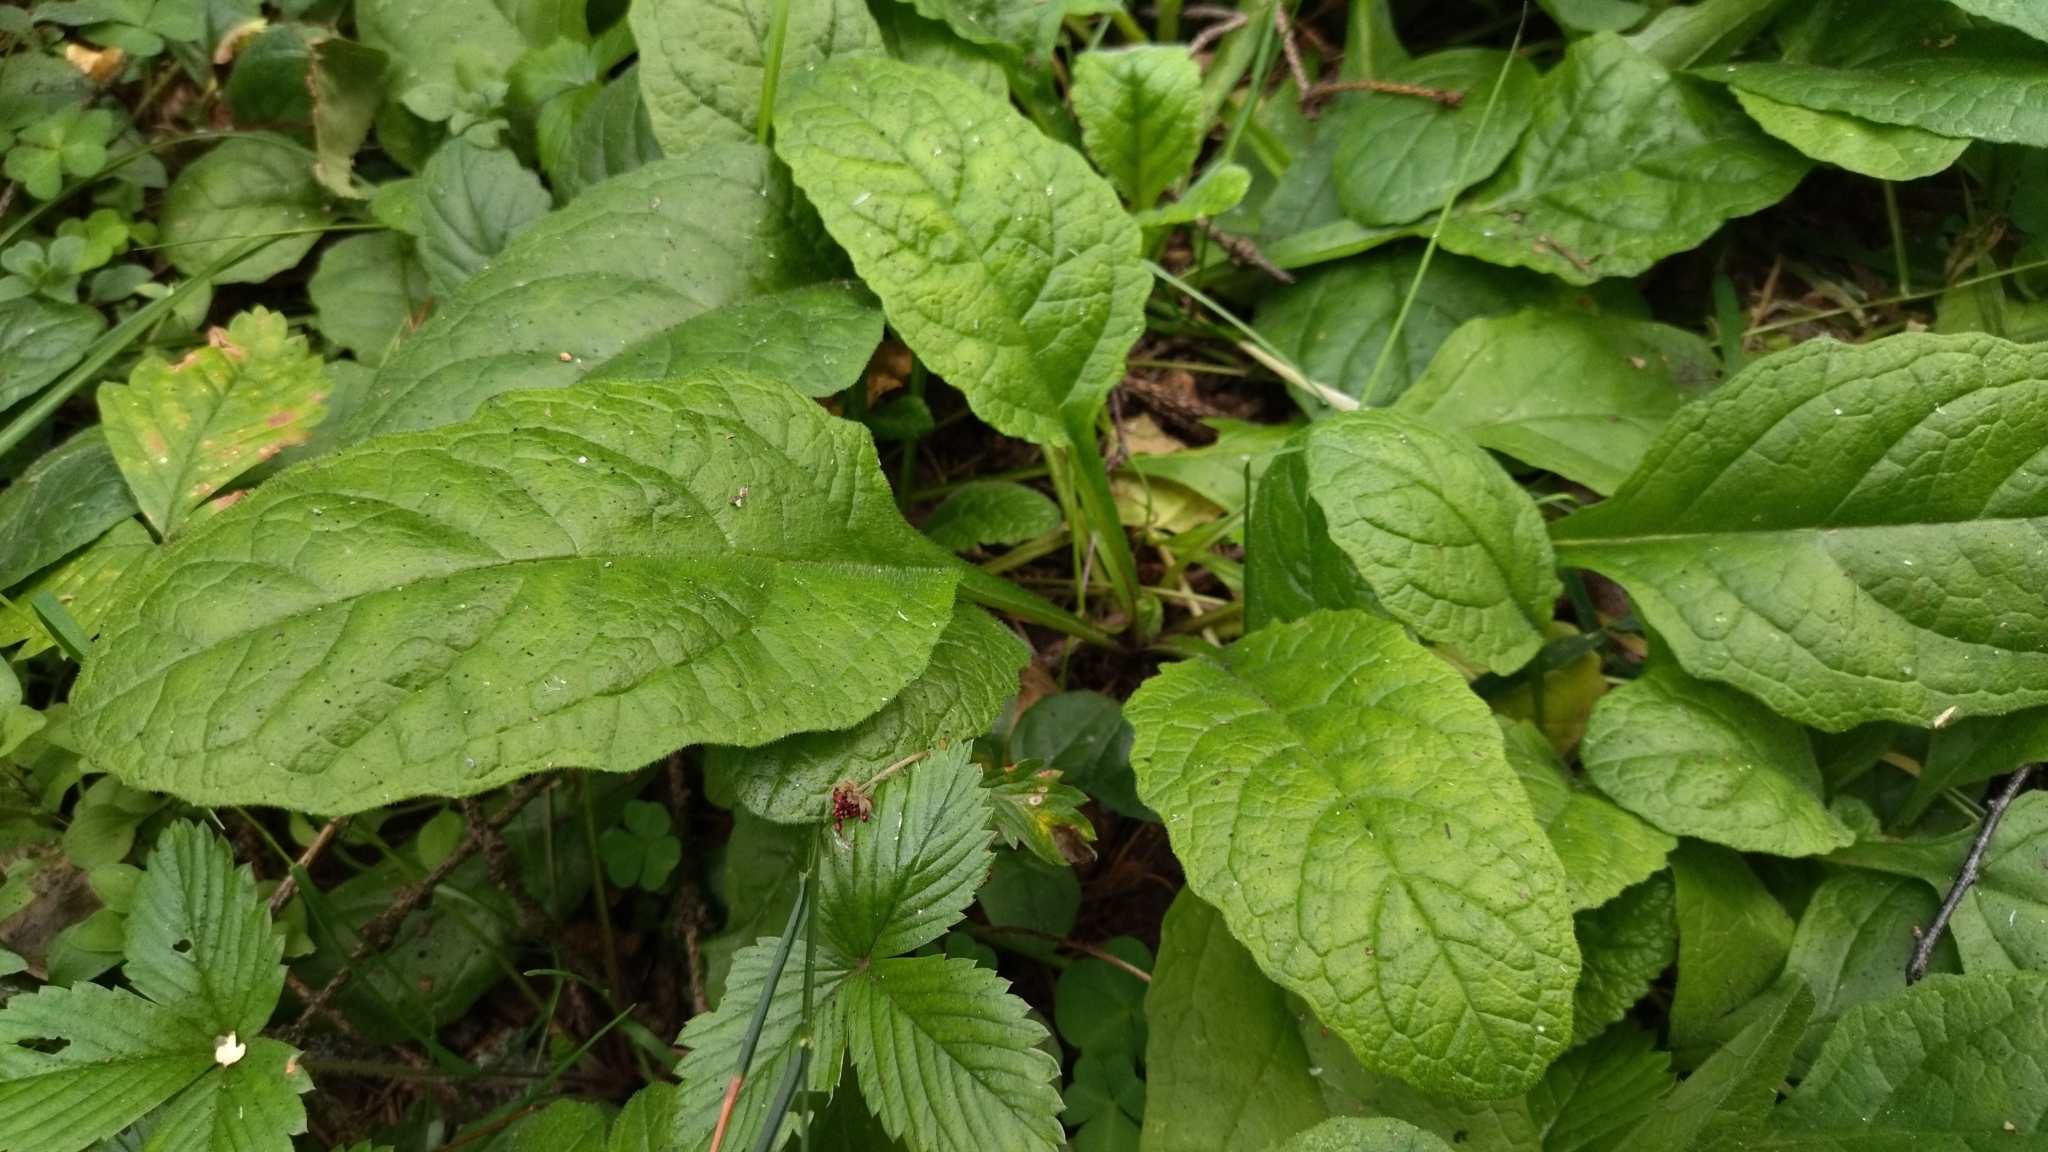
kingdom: Plantae
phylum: Tracheophyta
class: Magnoliopsida
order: Lamiales
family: Lamiaceae
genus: Ajuga
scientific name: Ajuga reptans
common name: Bugle
